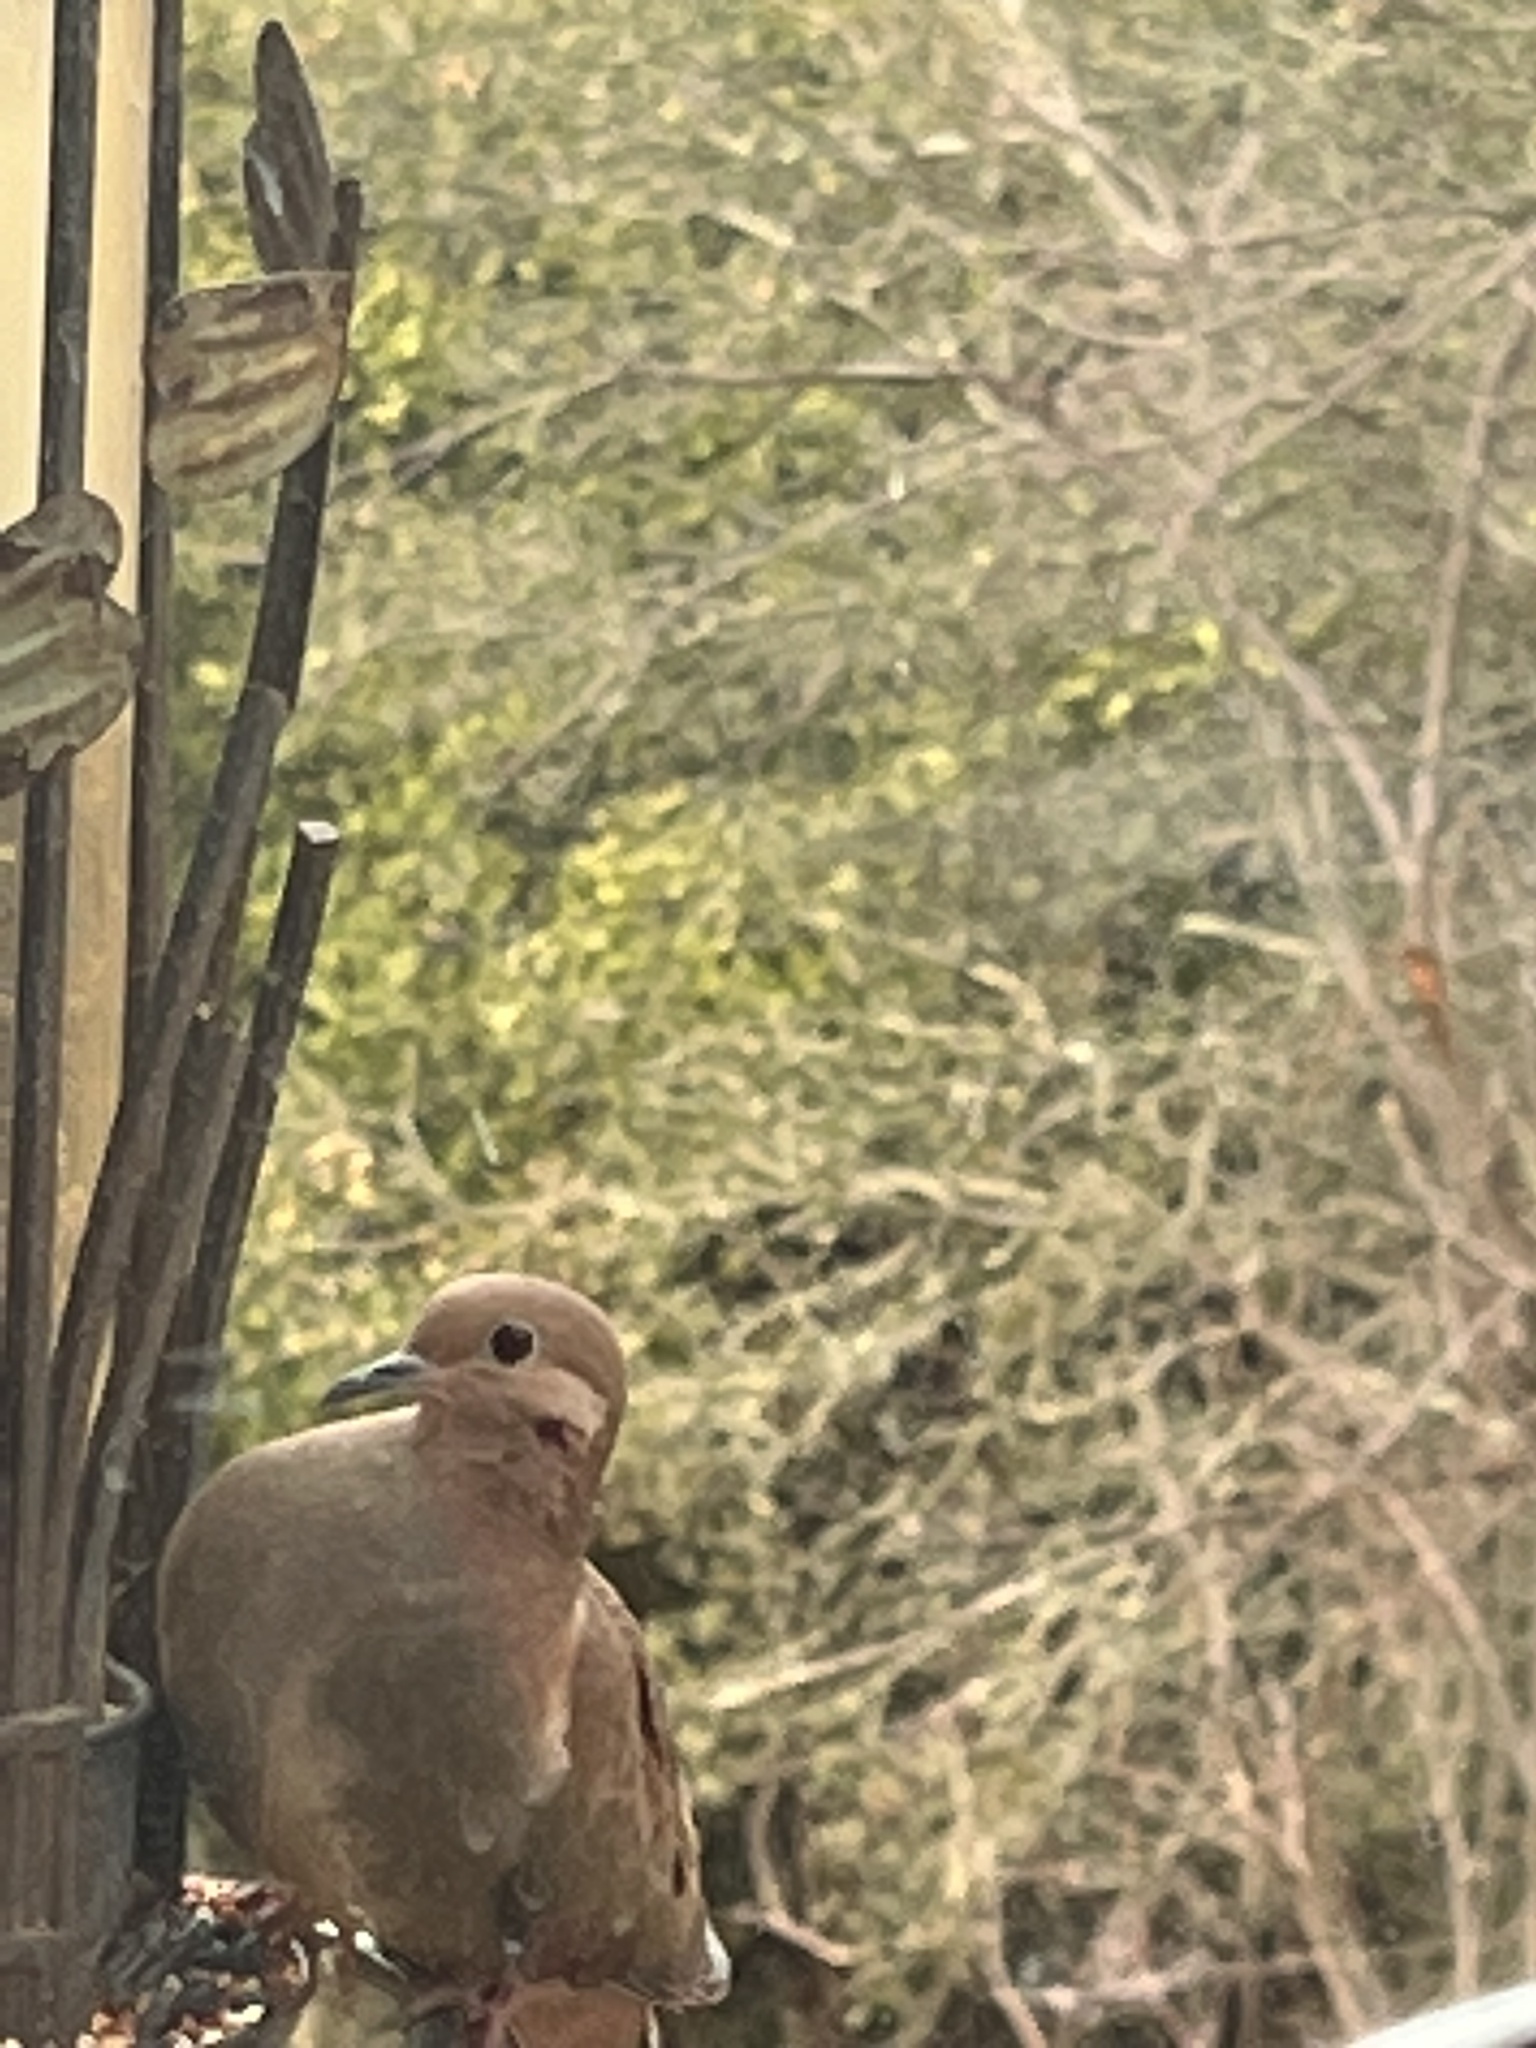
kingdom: Animalia
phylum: Chordata
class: Aves
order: Columbiformes
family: Columbidae
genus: Zenaida
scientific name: Zenaida macroura
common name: Mourning dove
